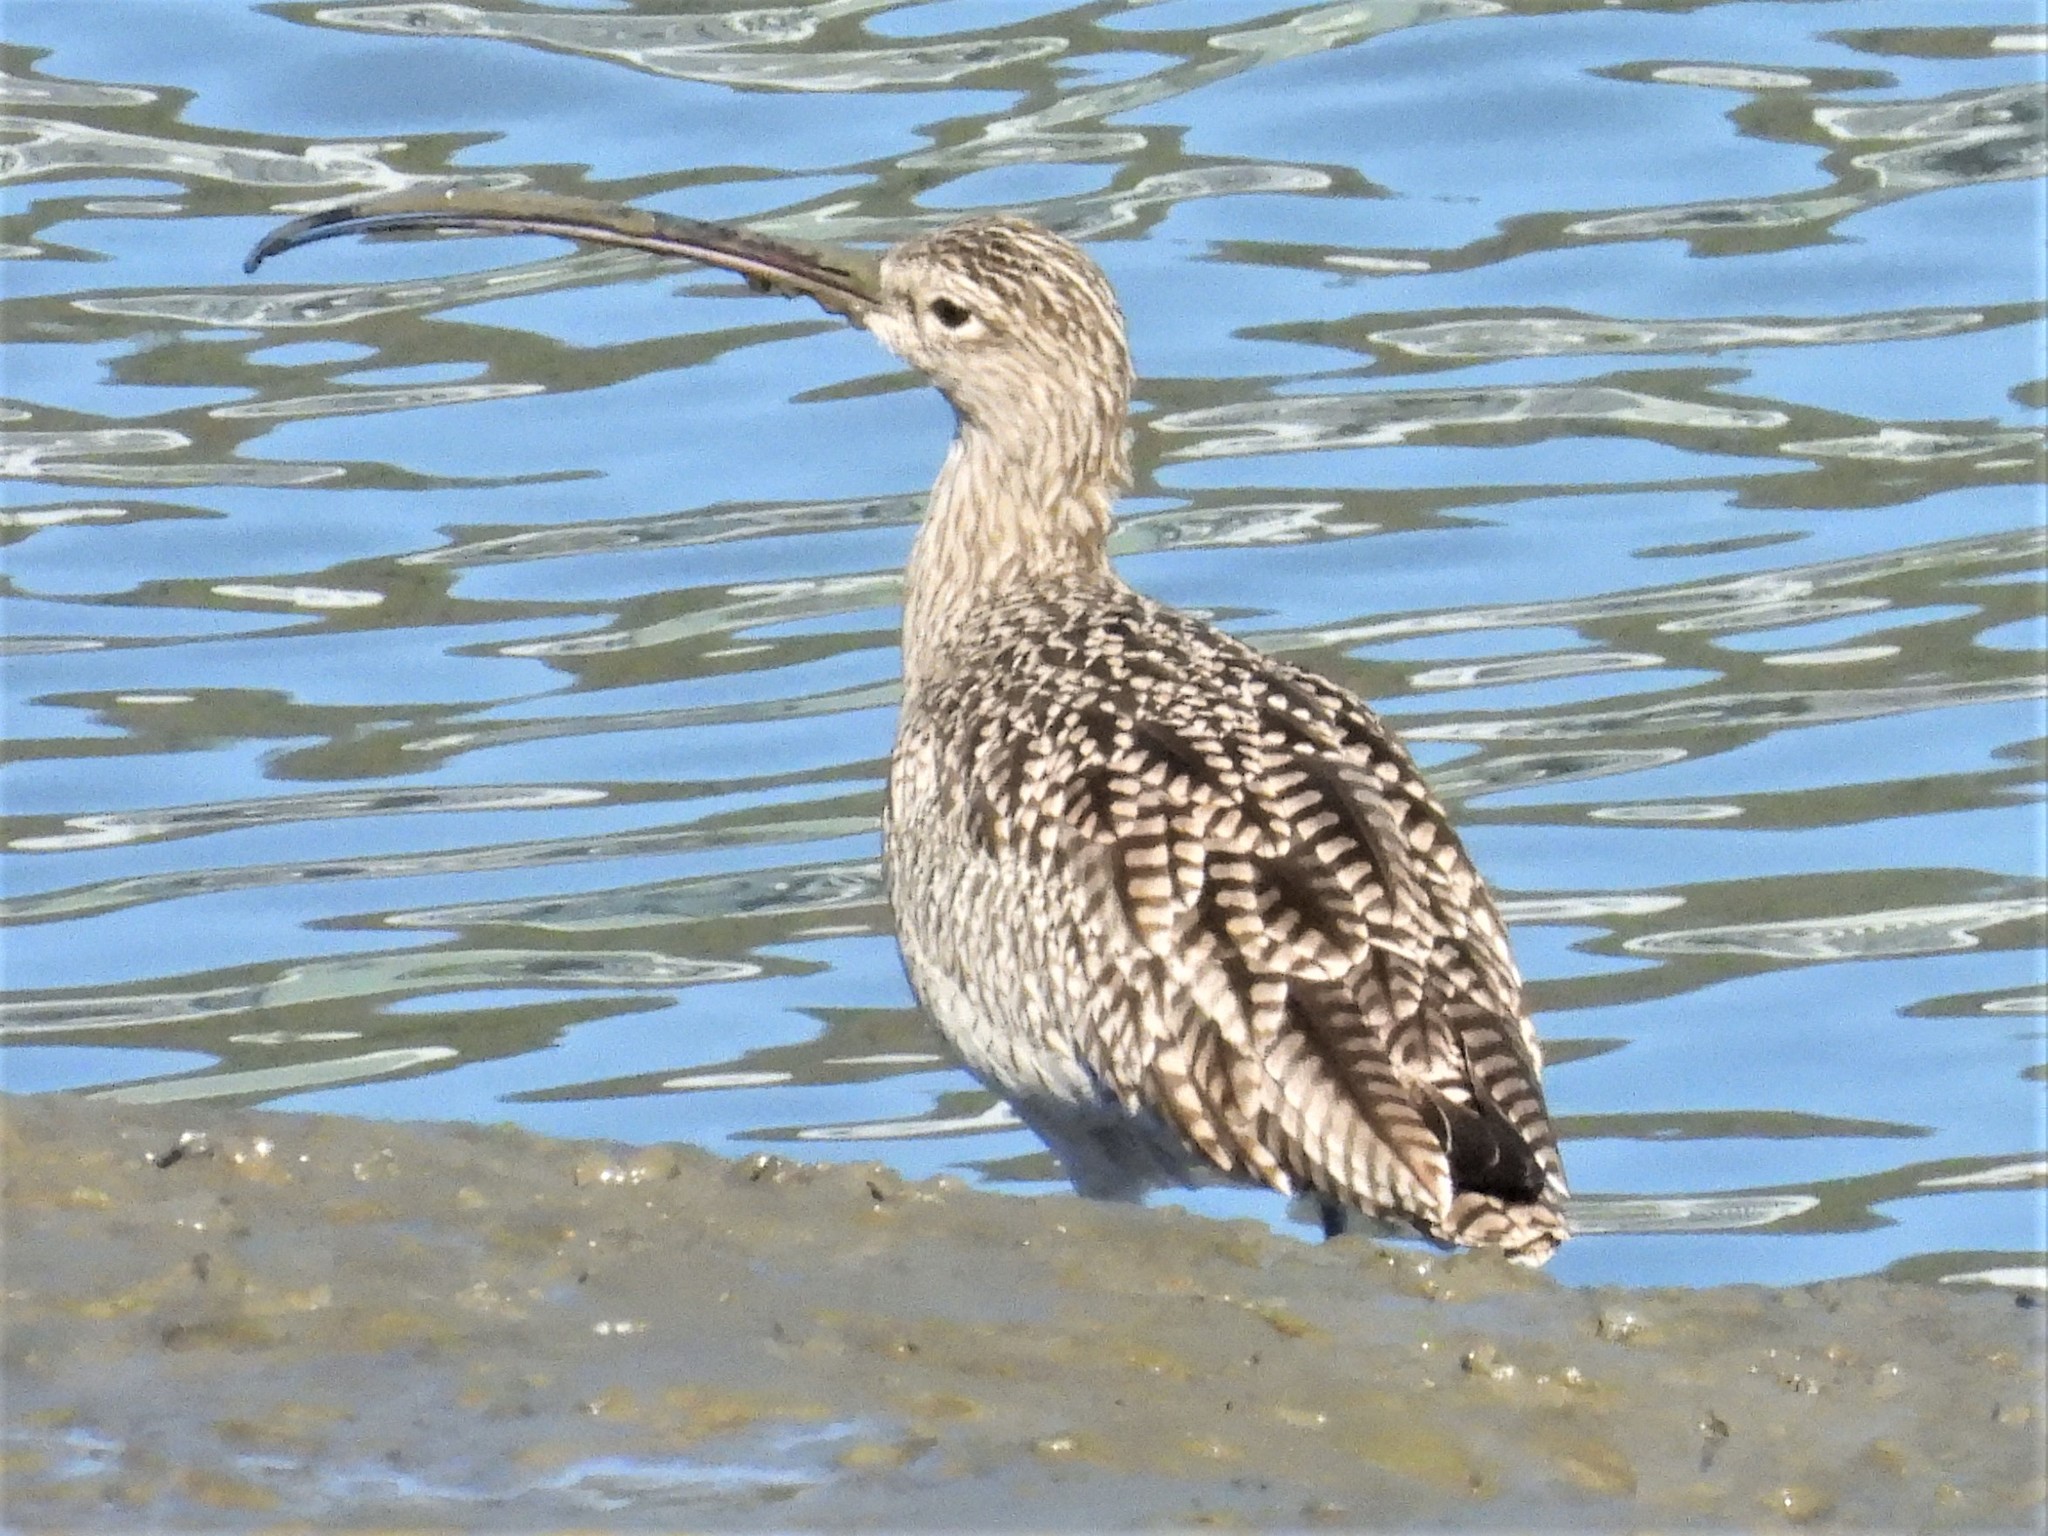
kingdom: Animalia
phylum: Chordata
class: Aves
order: Charadriiformes
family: Scolopacidae
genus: Numenius
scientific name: Numenius americanus
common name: Long-billed curlew
